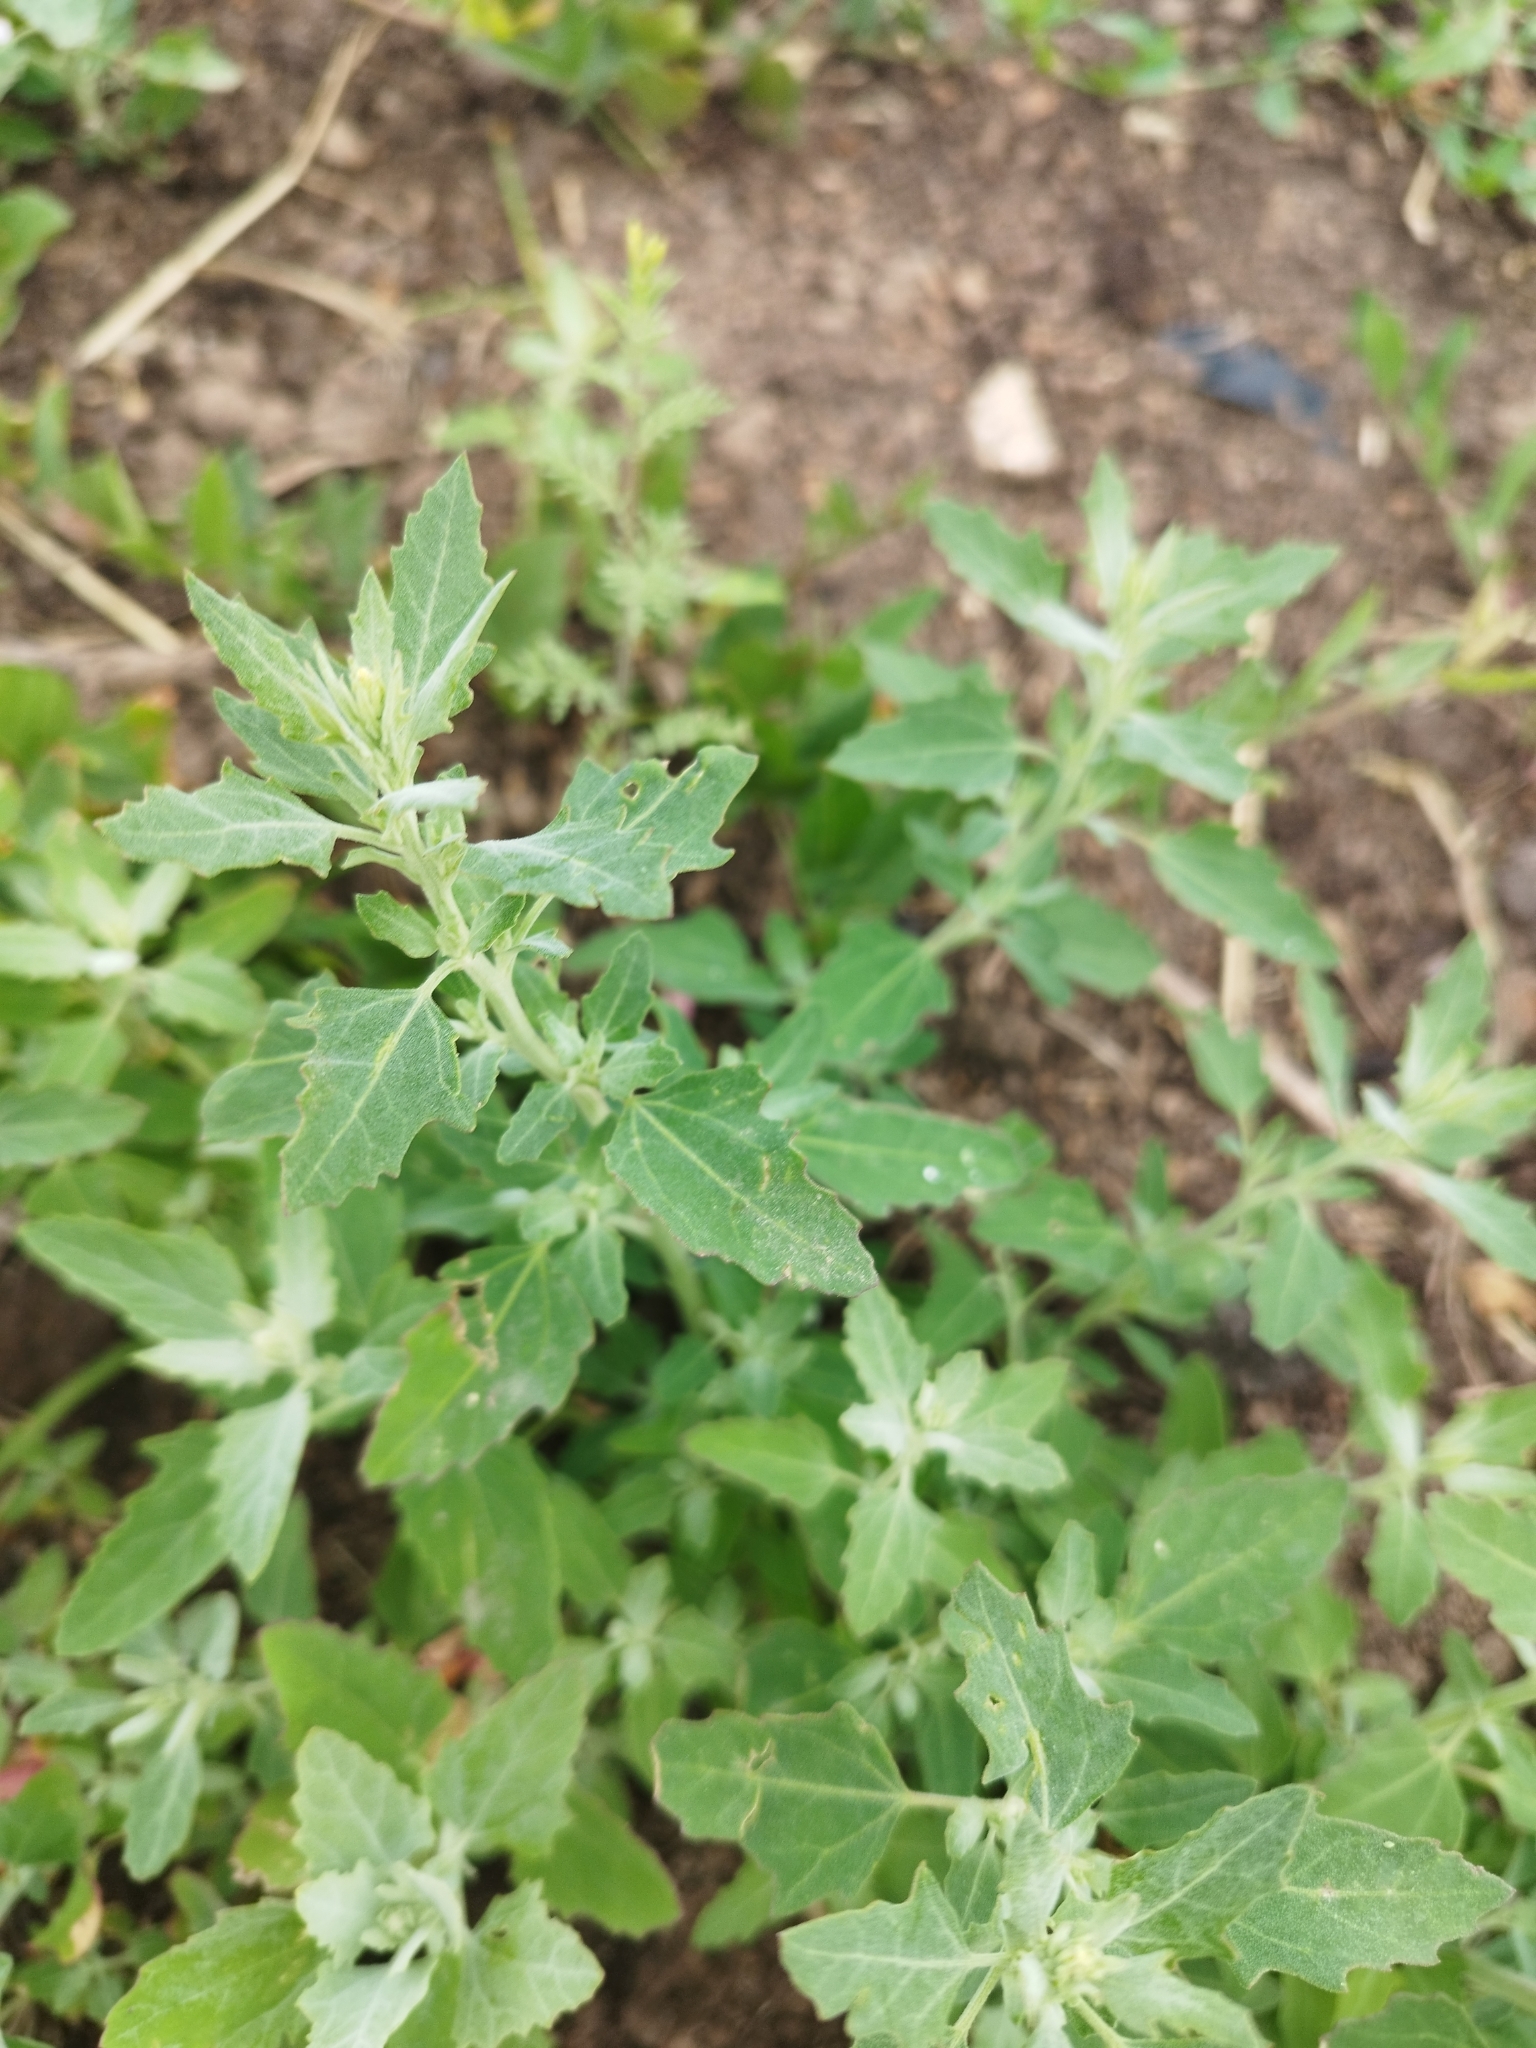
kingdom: Plantae
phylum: Tracheophyta
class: Magnoliopsida
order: Caryophyllales
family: Amaranthaceae
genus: Chenopodium
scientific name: Chenopodium album
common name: Fat-hen
